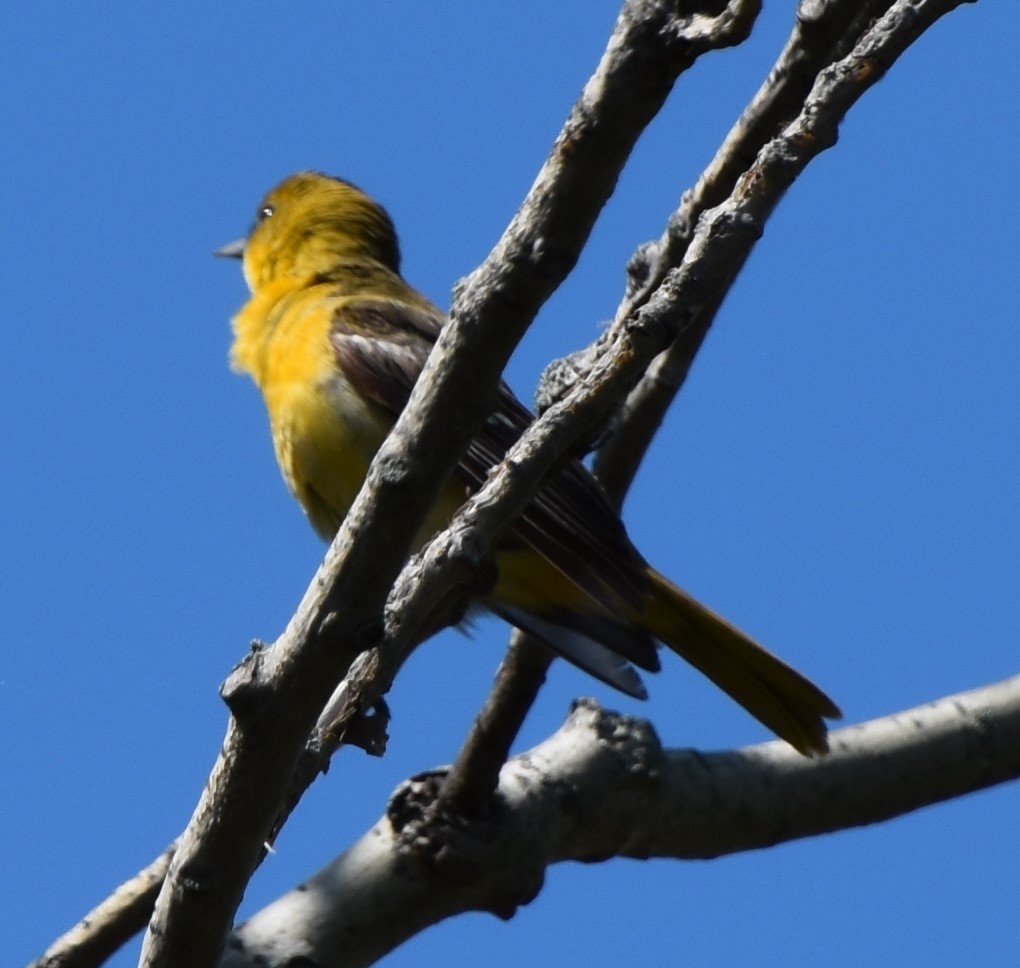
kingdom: Animalia
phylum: Chordata
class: Aves
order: Passeriformes
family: Icteridae
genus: Icterus
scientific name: Icterus spurius
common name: Orchard oriole
